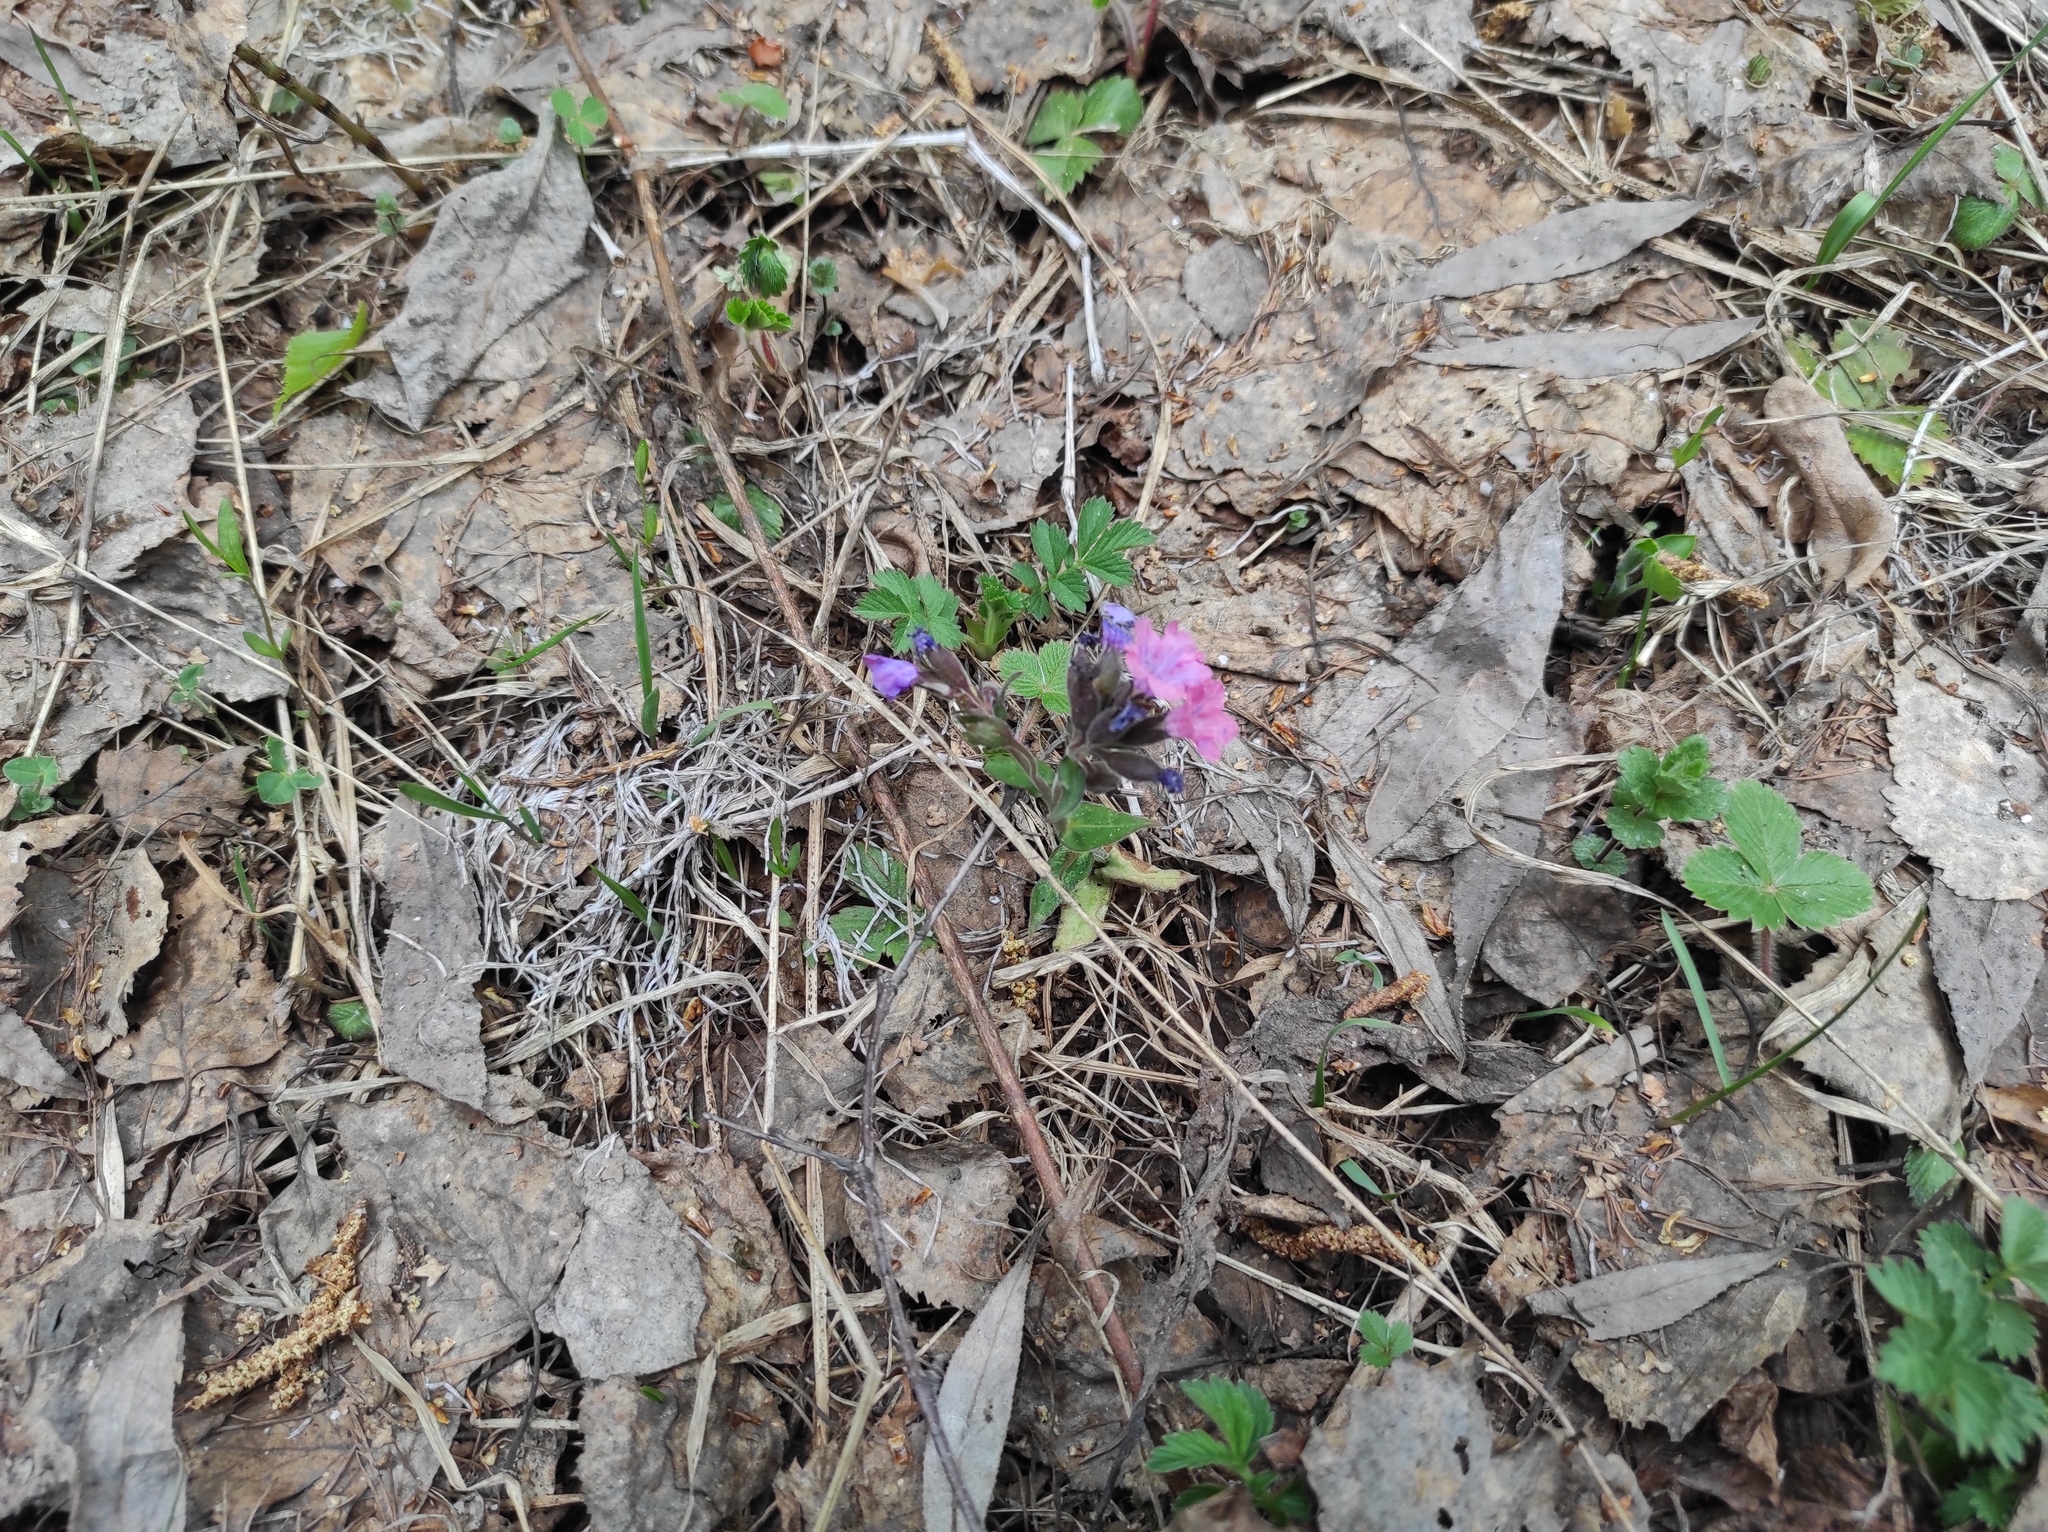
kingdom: Plantae
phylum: Tracheophyta
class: Magnoliopsida
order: Lamiales
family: Plantaginaceae
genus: Veronica
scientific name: Veronica chamaedrys
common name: Germander speedwell
